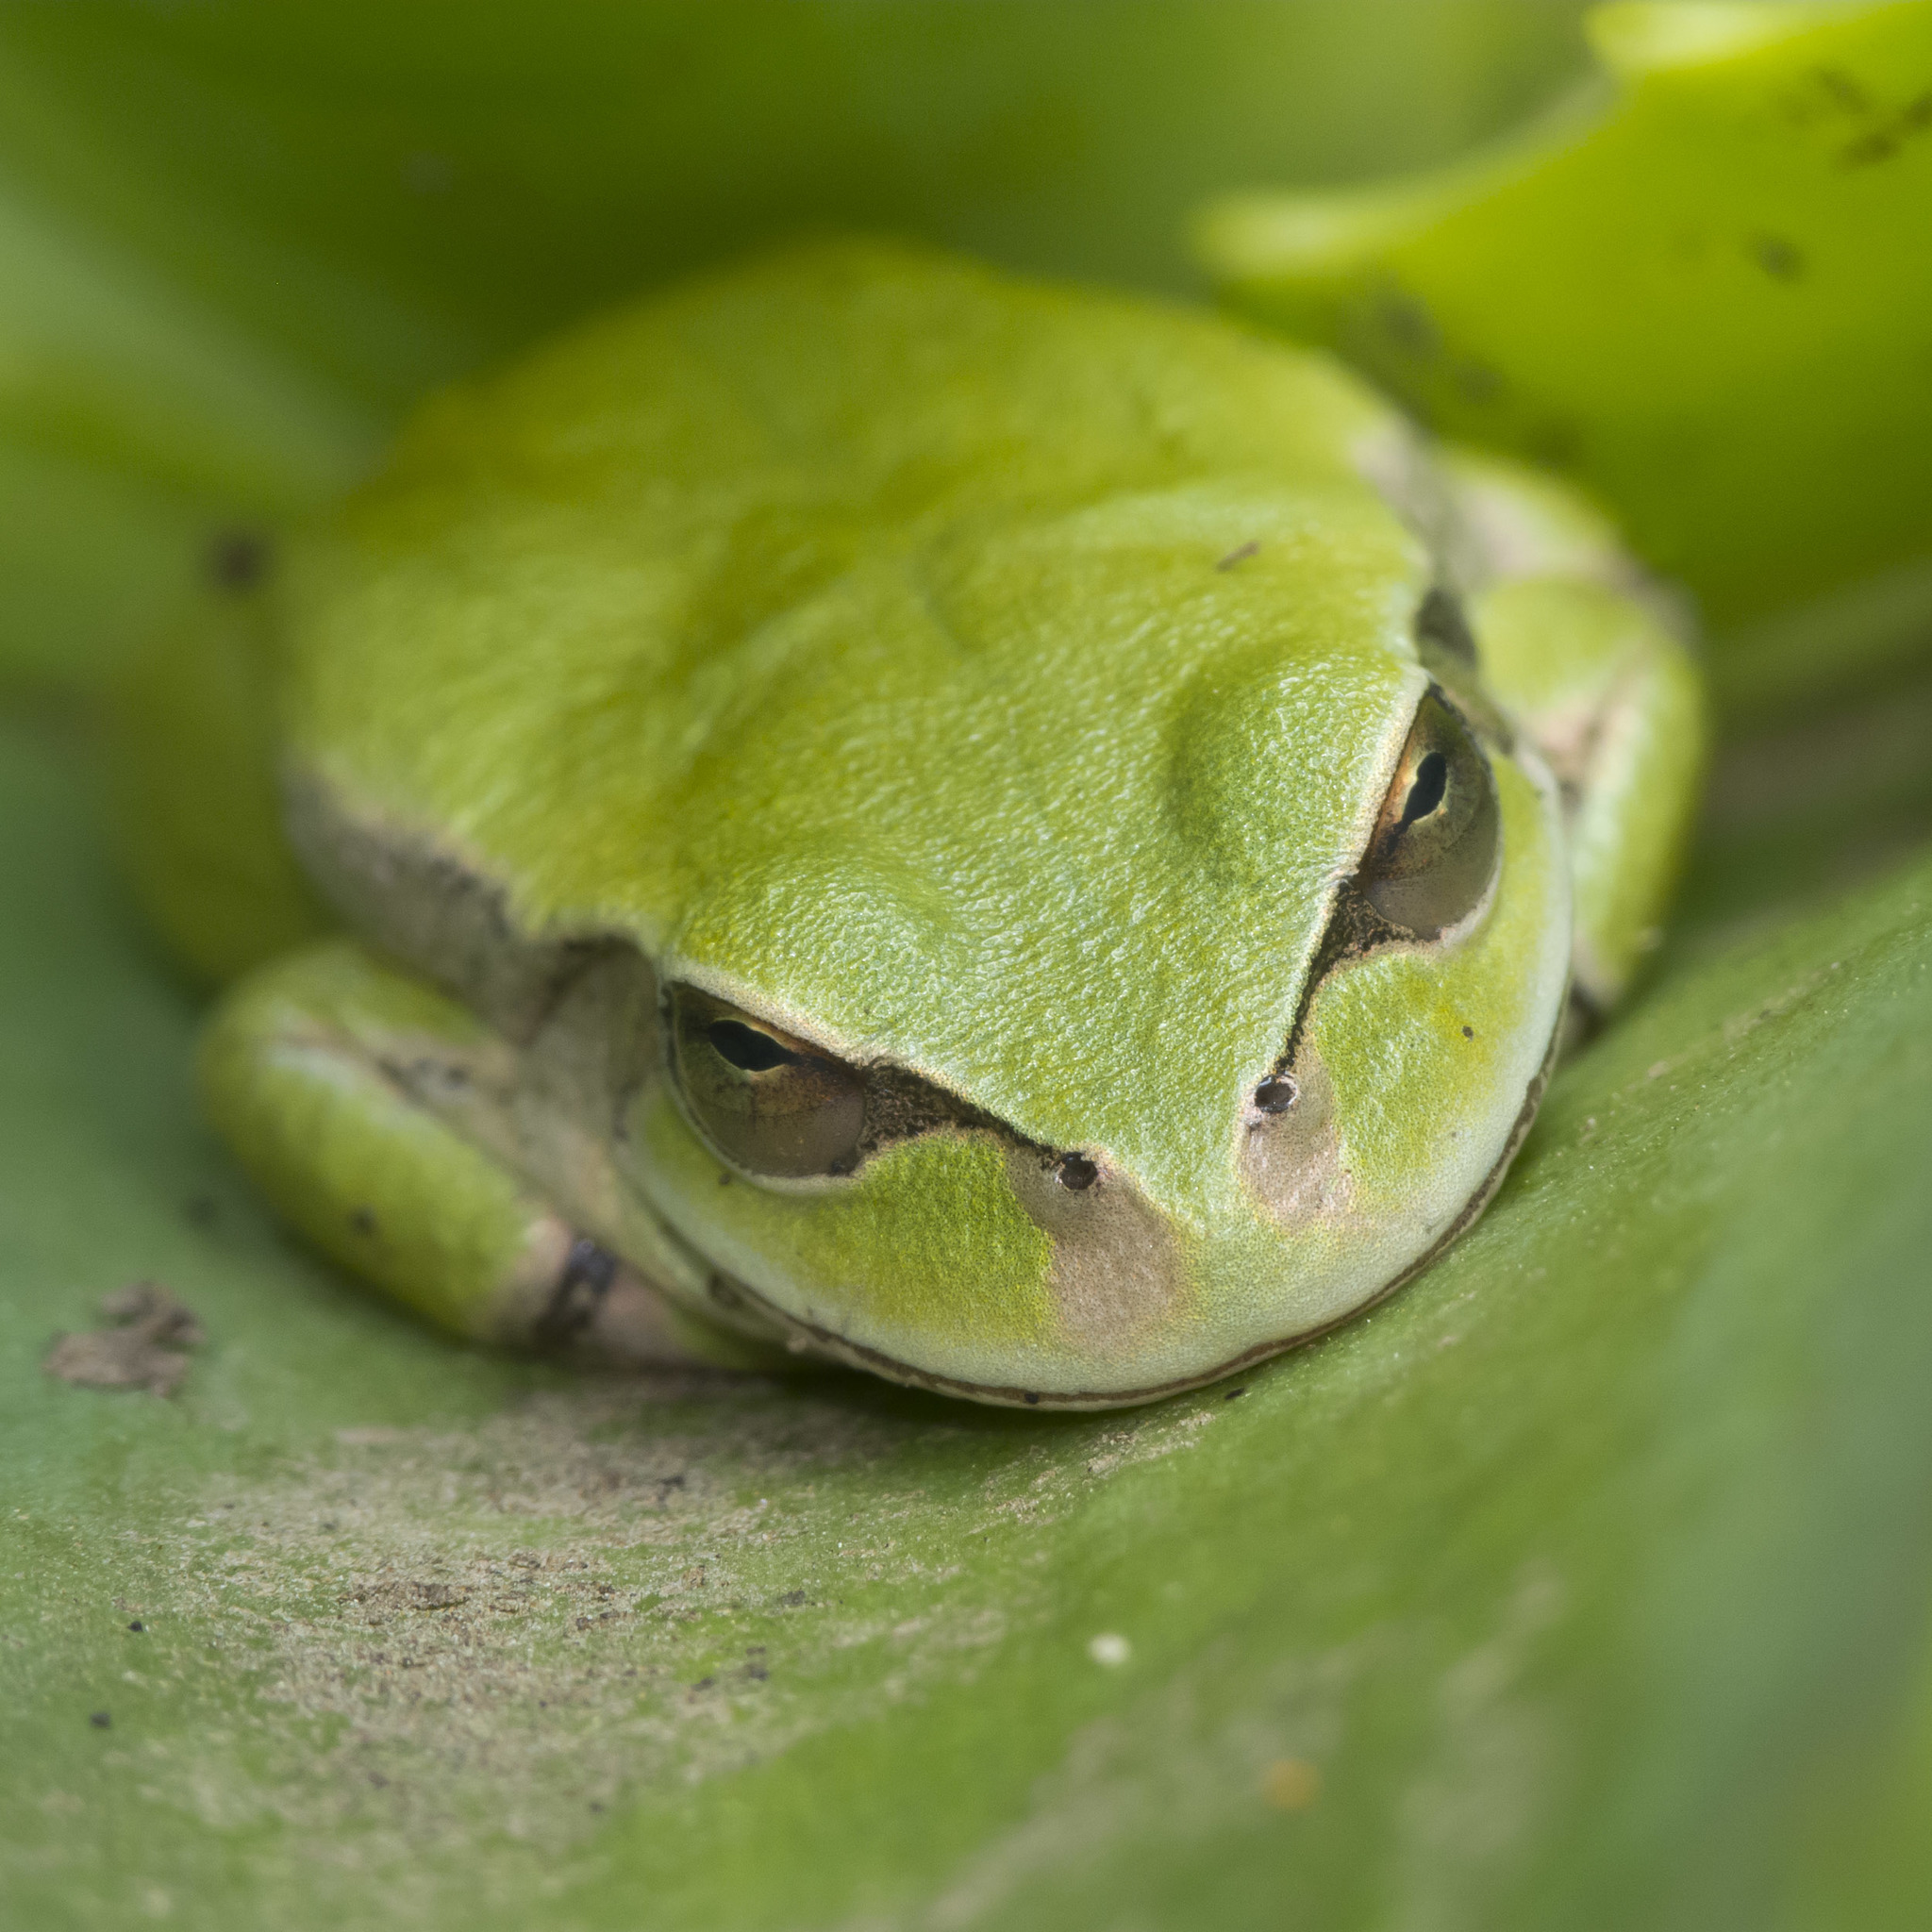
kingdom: Animalia
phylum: Chordata
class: Amphibia
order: Anura
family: Hylidae
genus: Dendropsophus
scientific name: Dendropsophus molitor
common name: Green dotted treefrog
